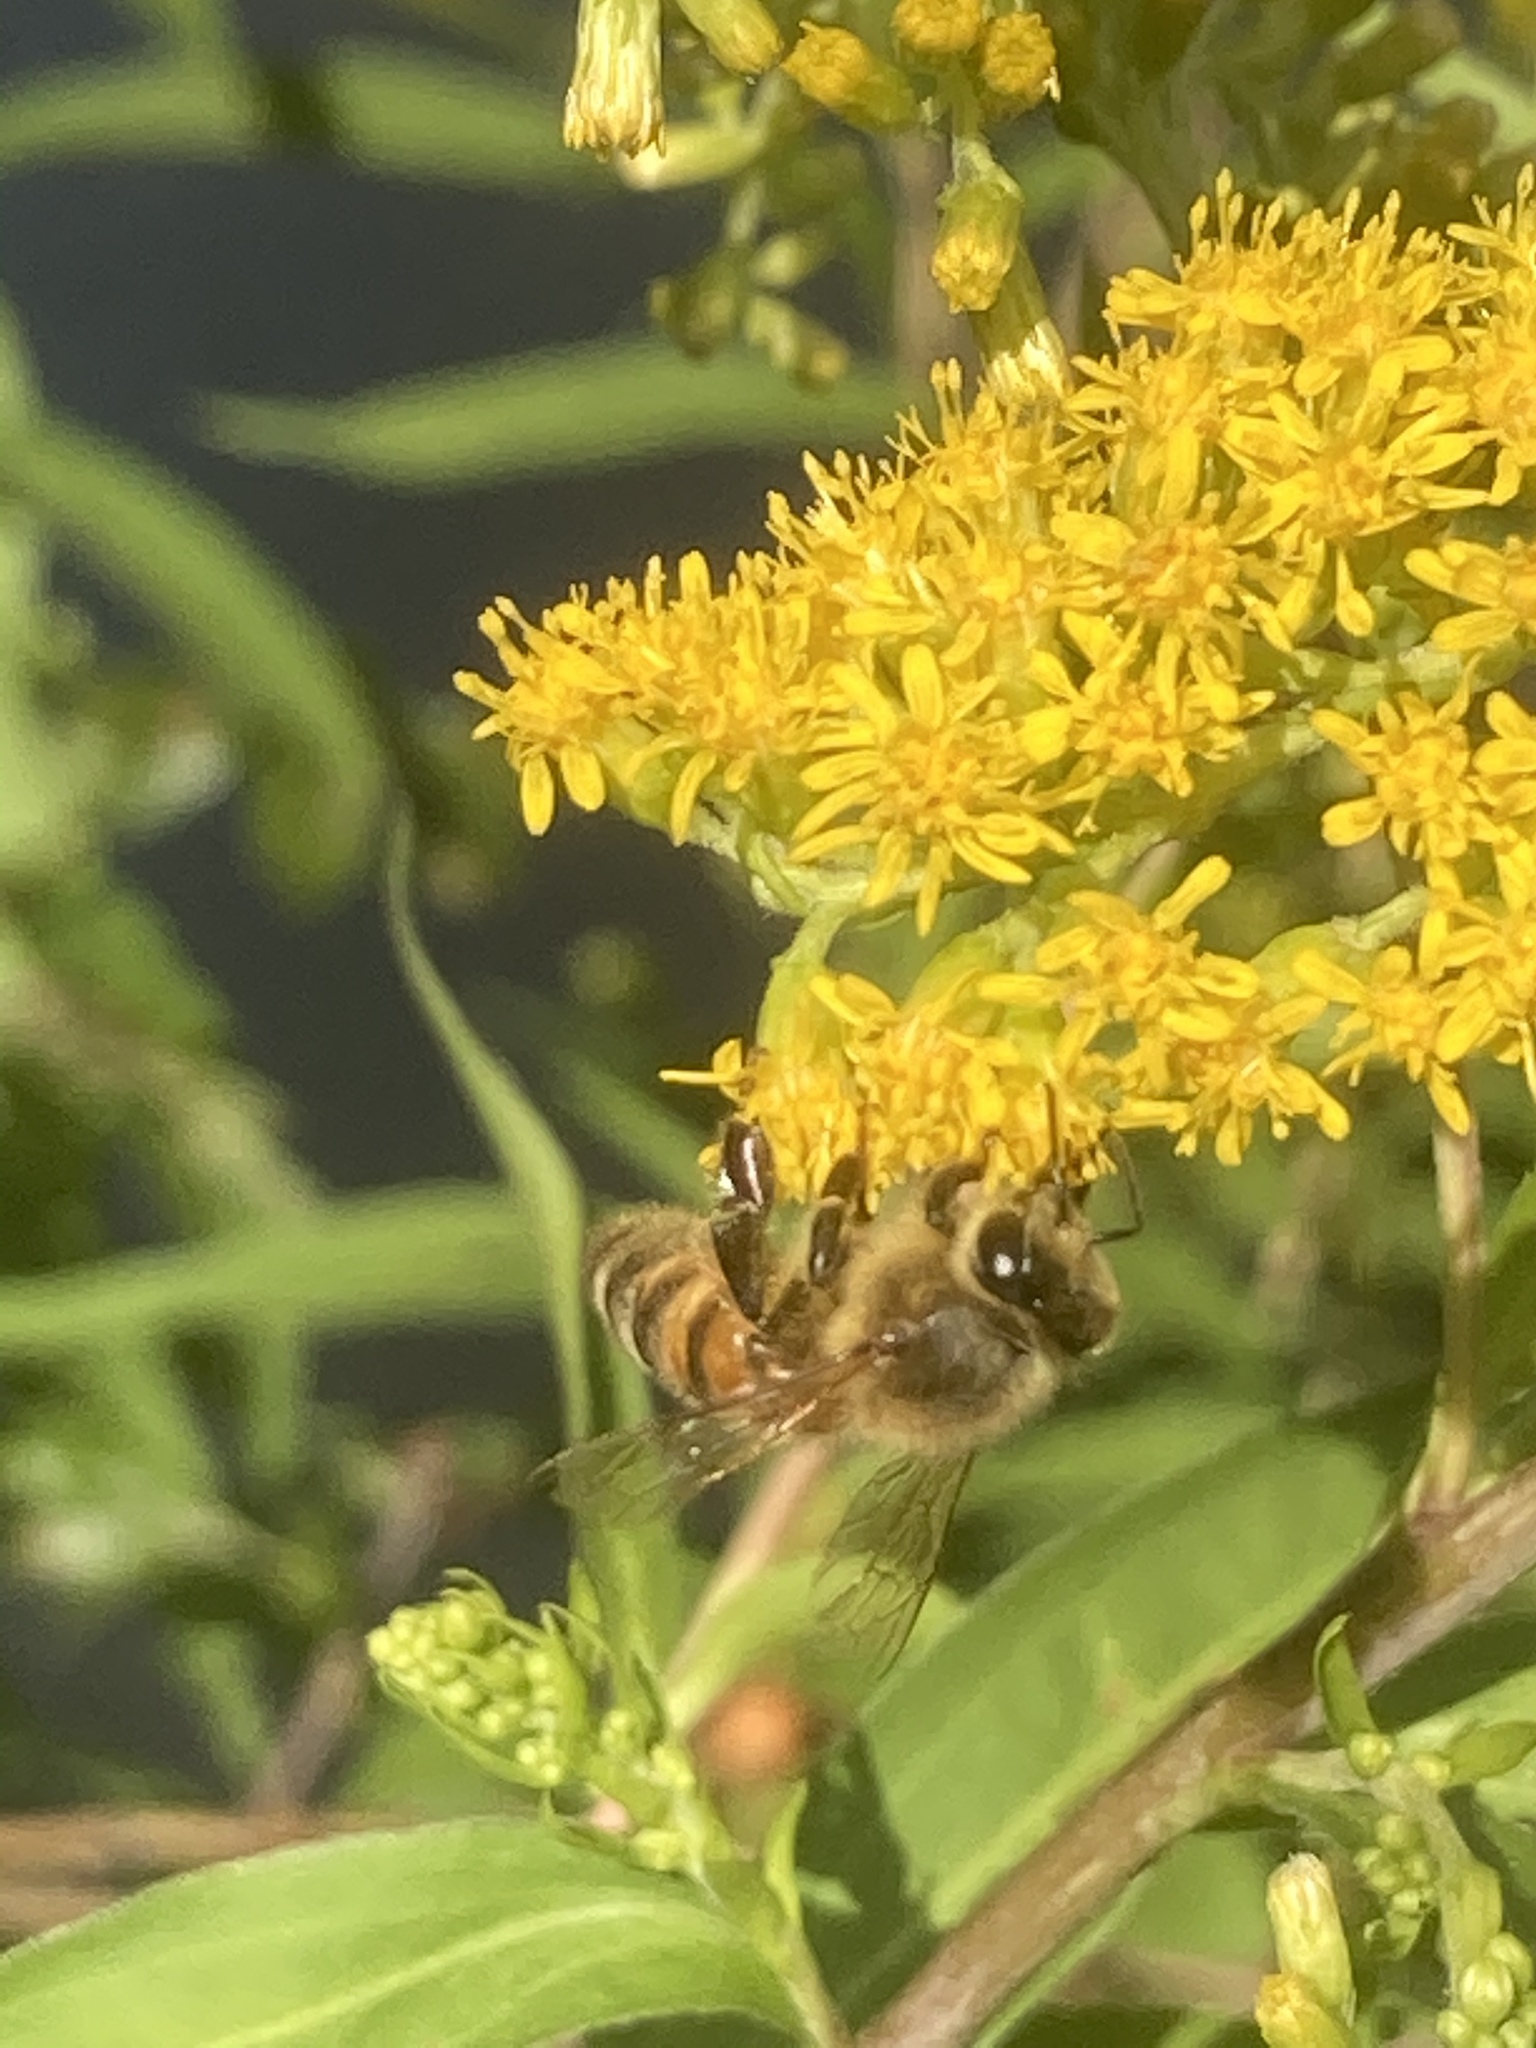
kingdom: Animalia
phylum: Arthropoda
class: Insecta
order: Hymenoptera
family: Apidae
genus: Apis
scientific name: Apis mellifera
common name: Honey bee
